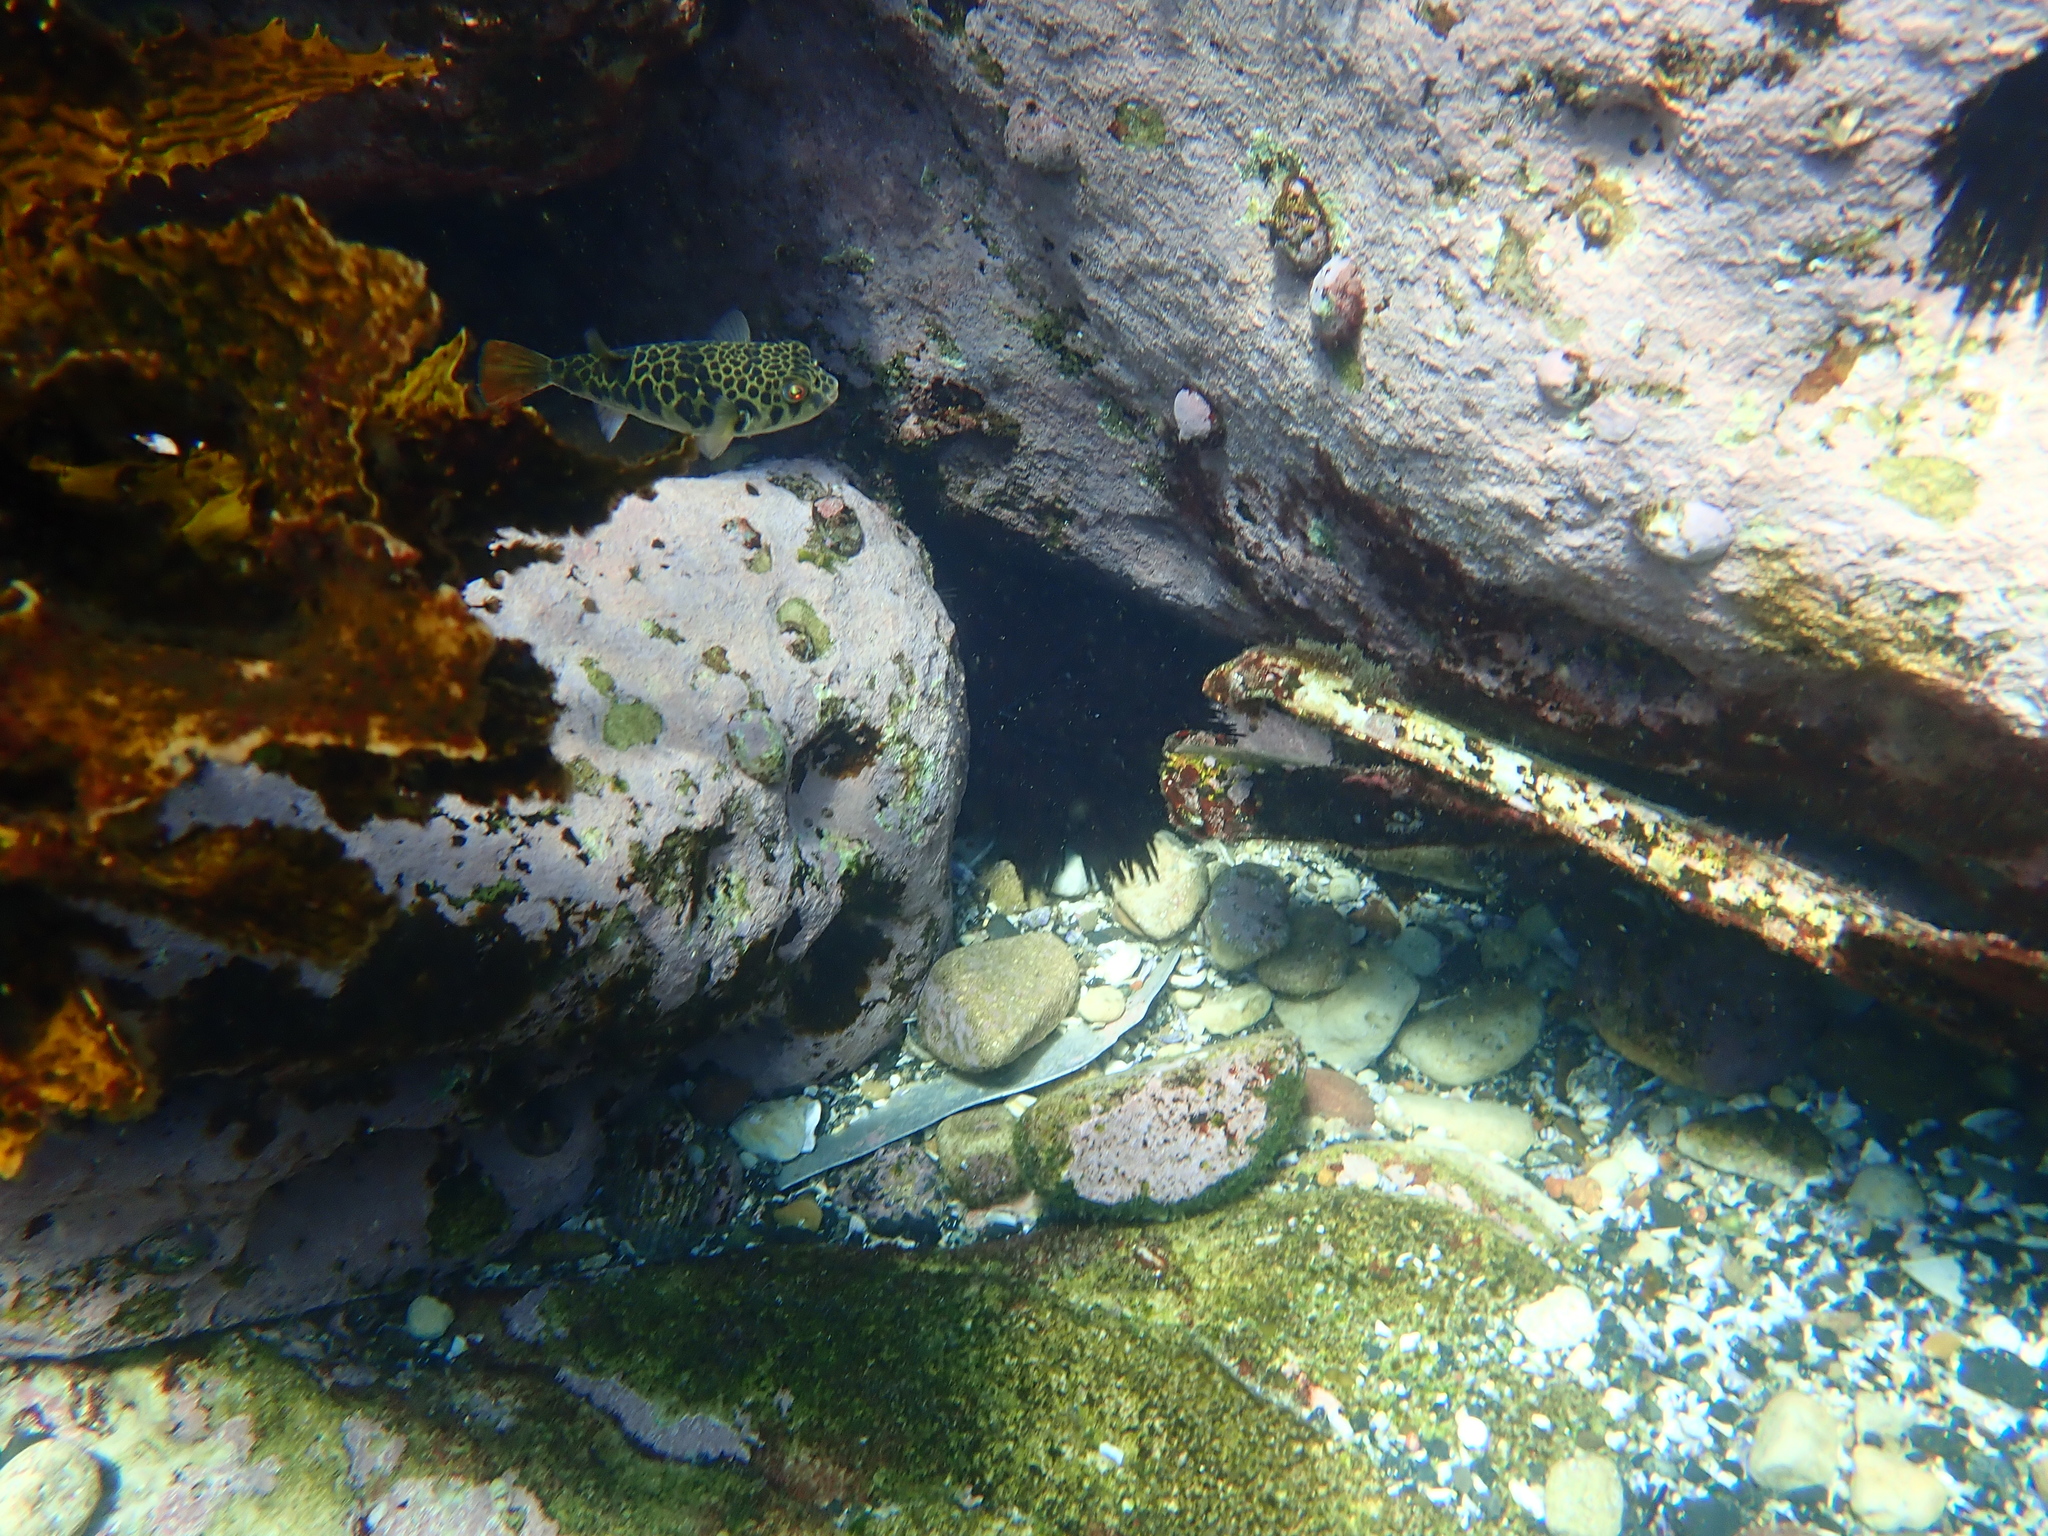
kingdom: Animalia
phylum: Chordata
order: Tetraodontiformes
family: Tetraodontidae
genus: Tetractenos
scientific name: Tetractenos glaber
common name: Smooth toadfish
